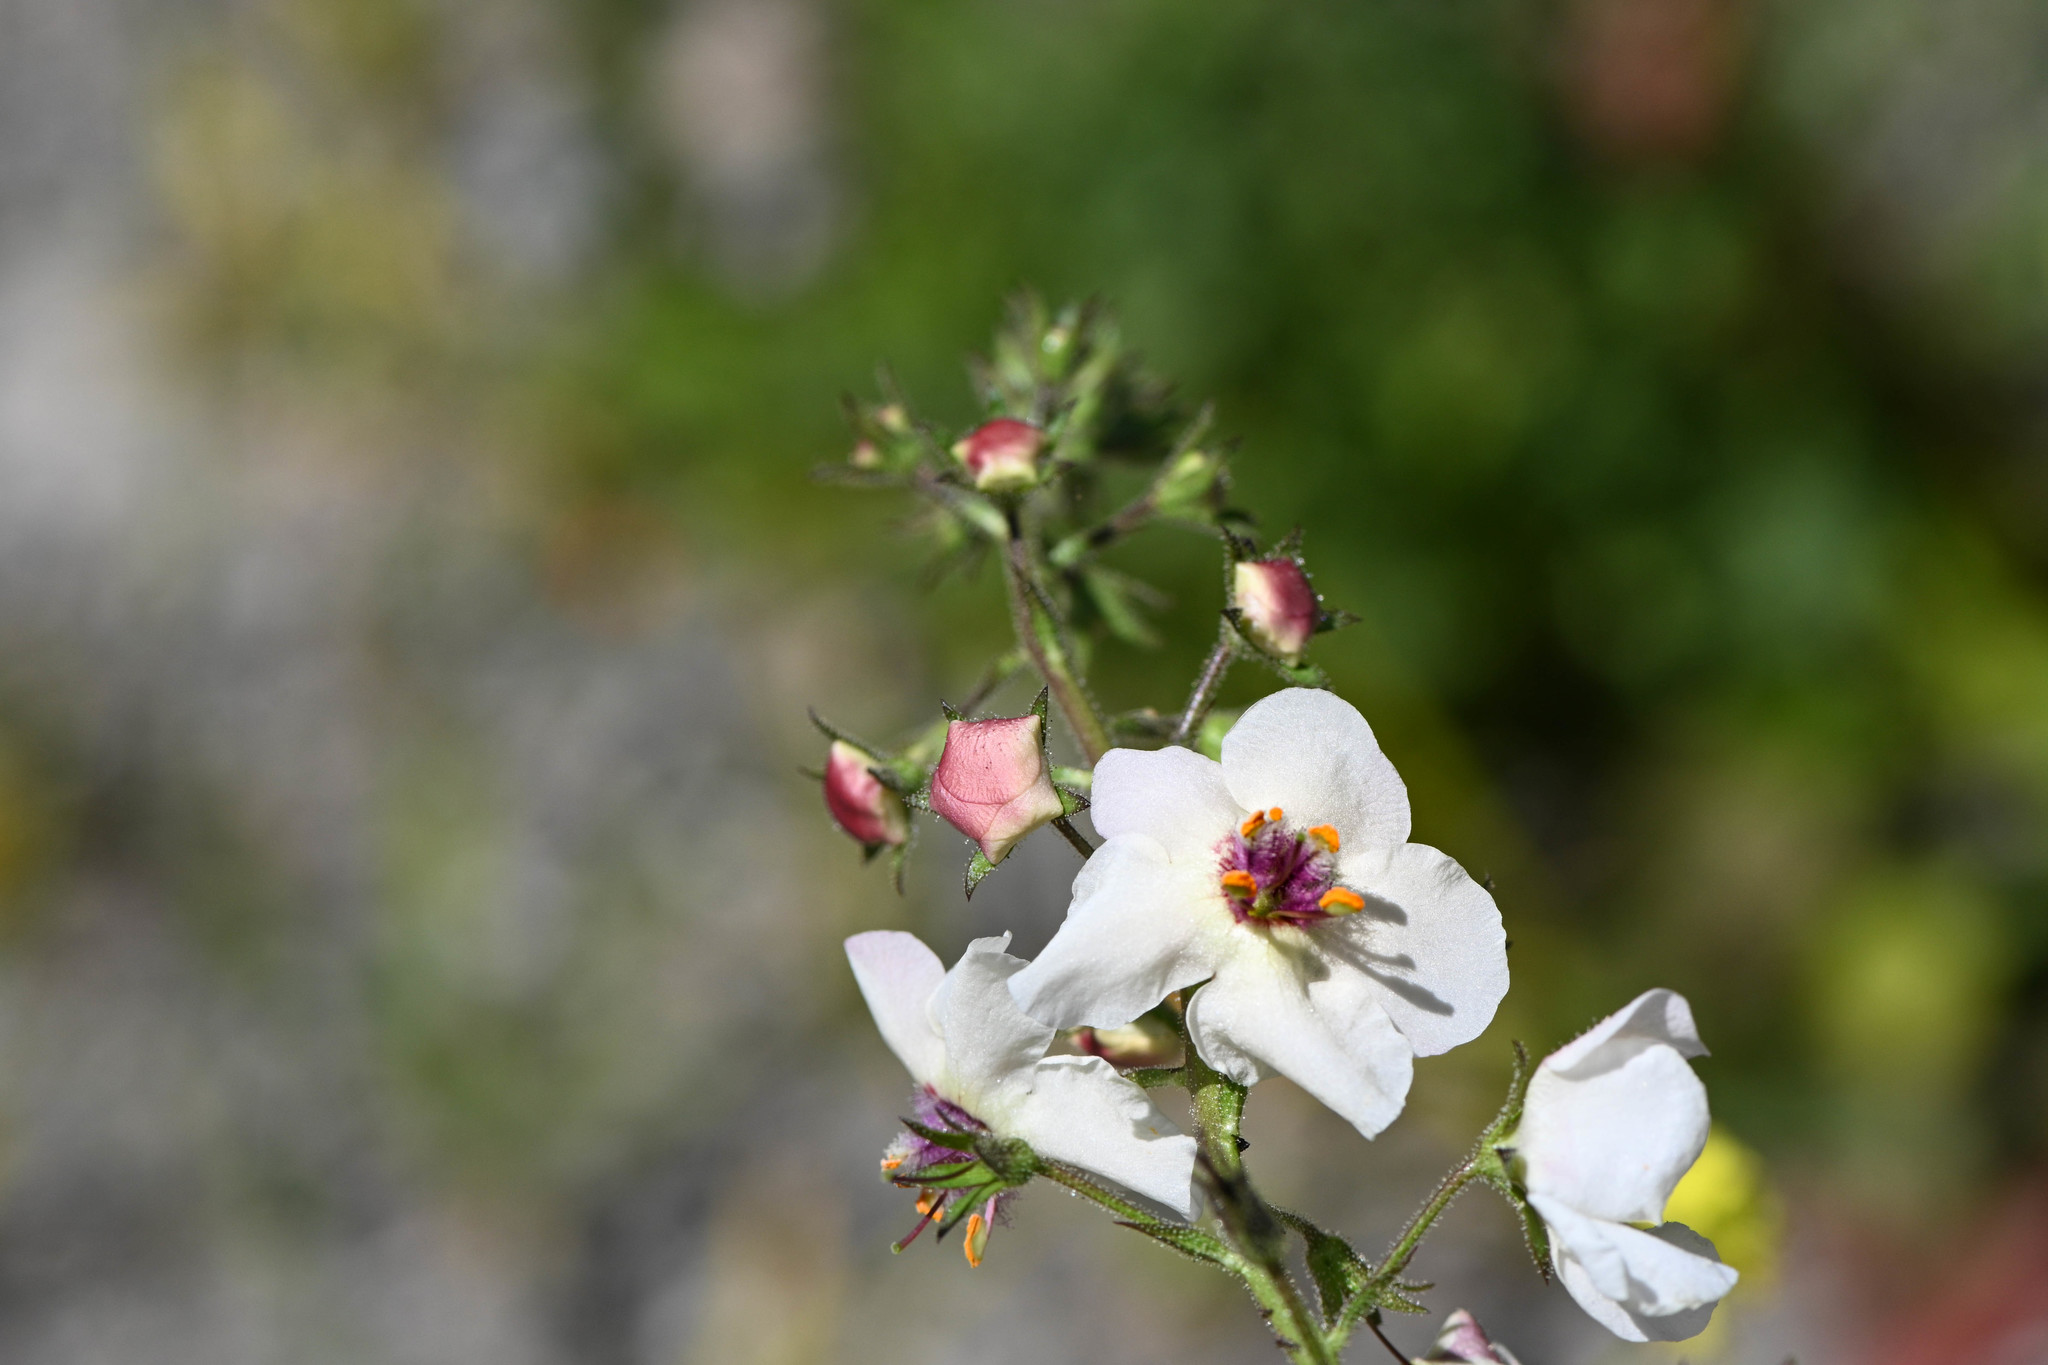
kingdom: Plantae
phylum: Tracheophyta
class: Magnoliopsida
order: Lamiales
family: Scrophulariaceae
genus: Verbascum
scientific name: Verbascum blattaria
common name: Moth mullein
